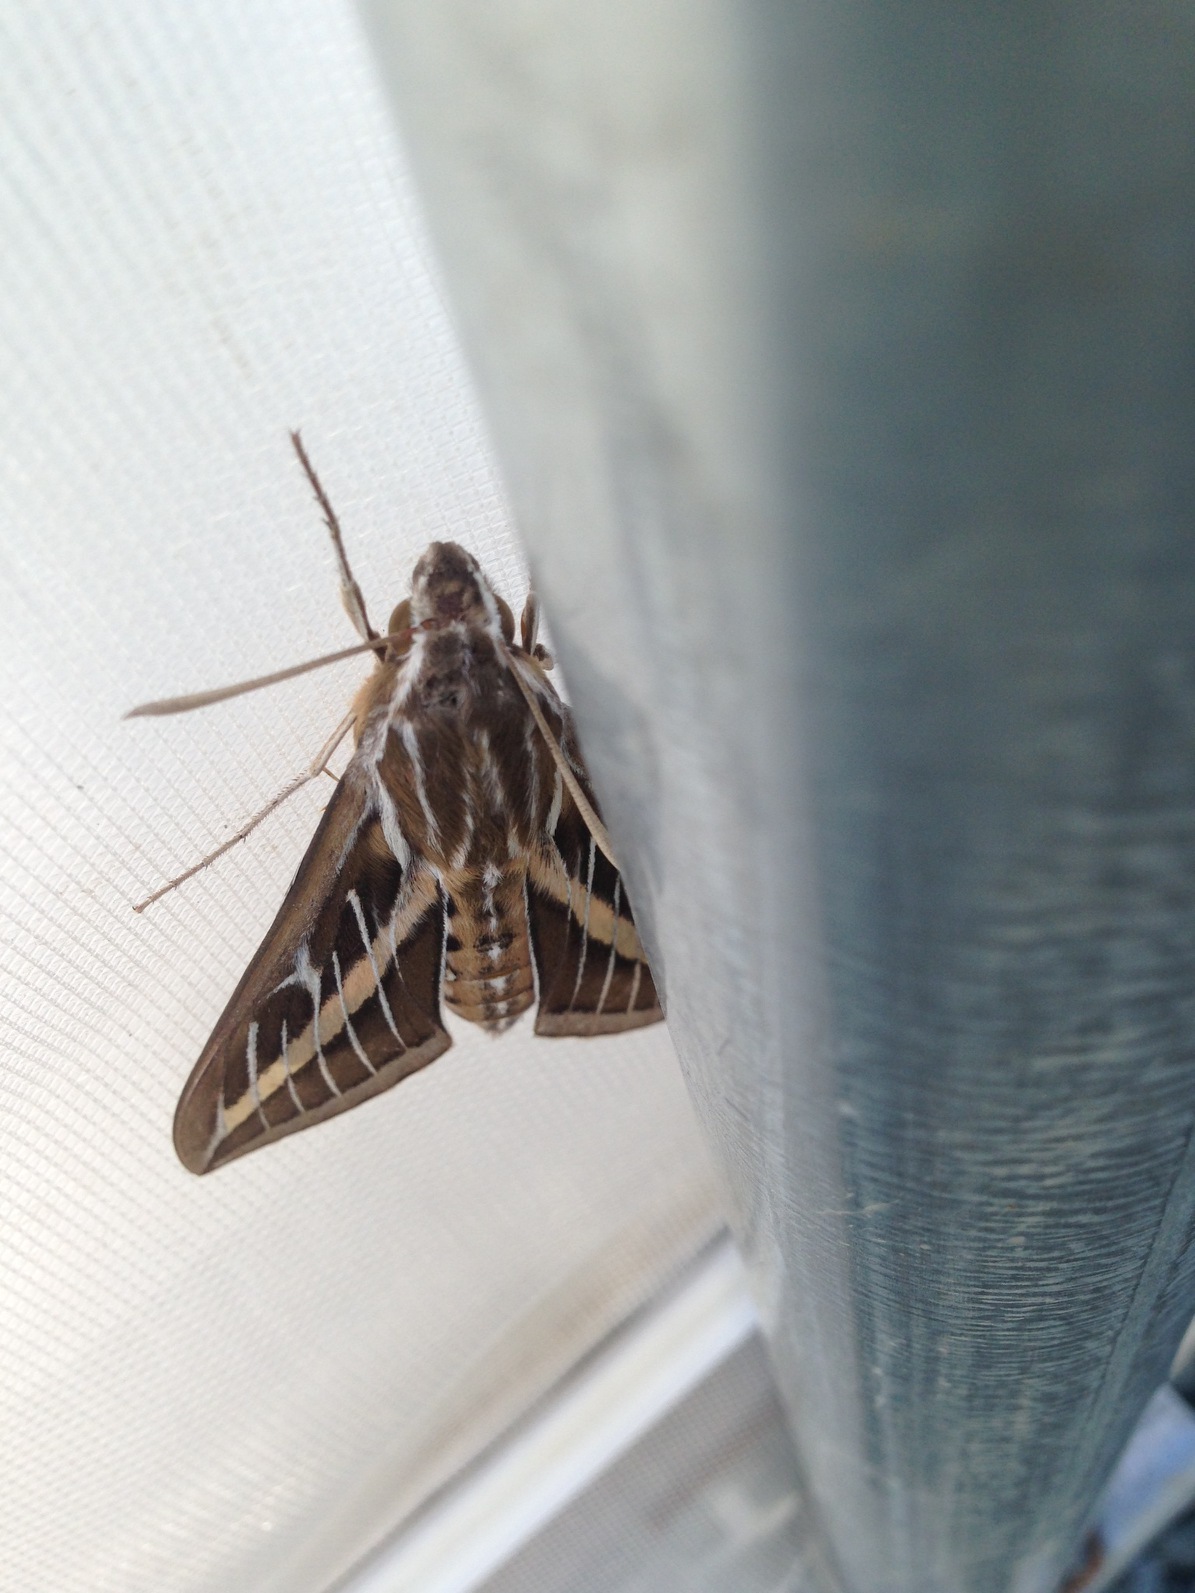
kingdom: Animalia
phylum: Arthropoda
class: Insecta
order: Lepidoptera
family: Sphingidae
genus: Hyles
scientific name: Hyles lineata
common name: White-lined sphinx
